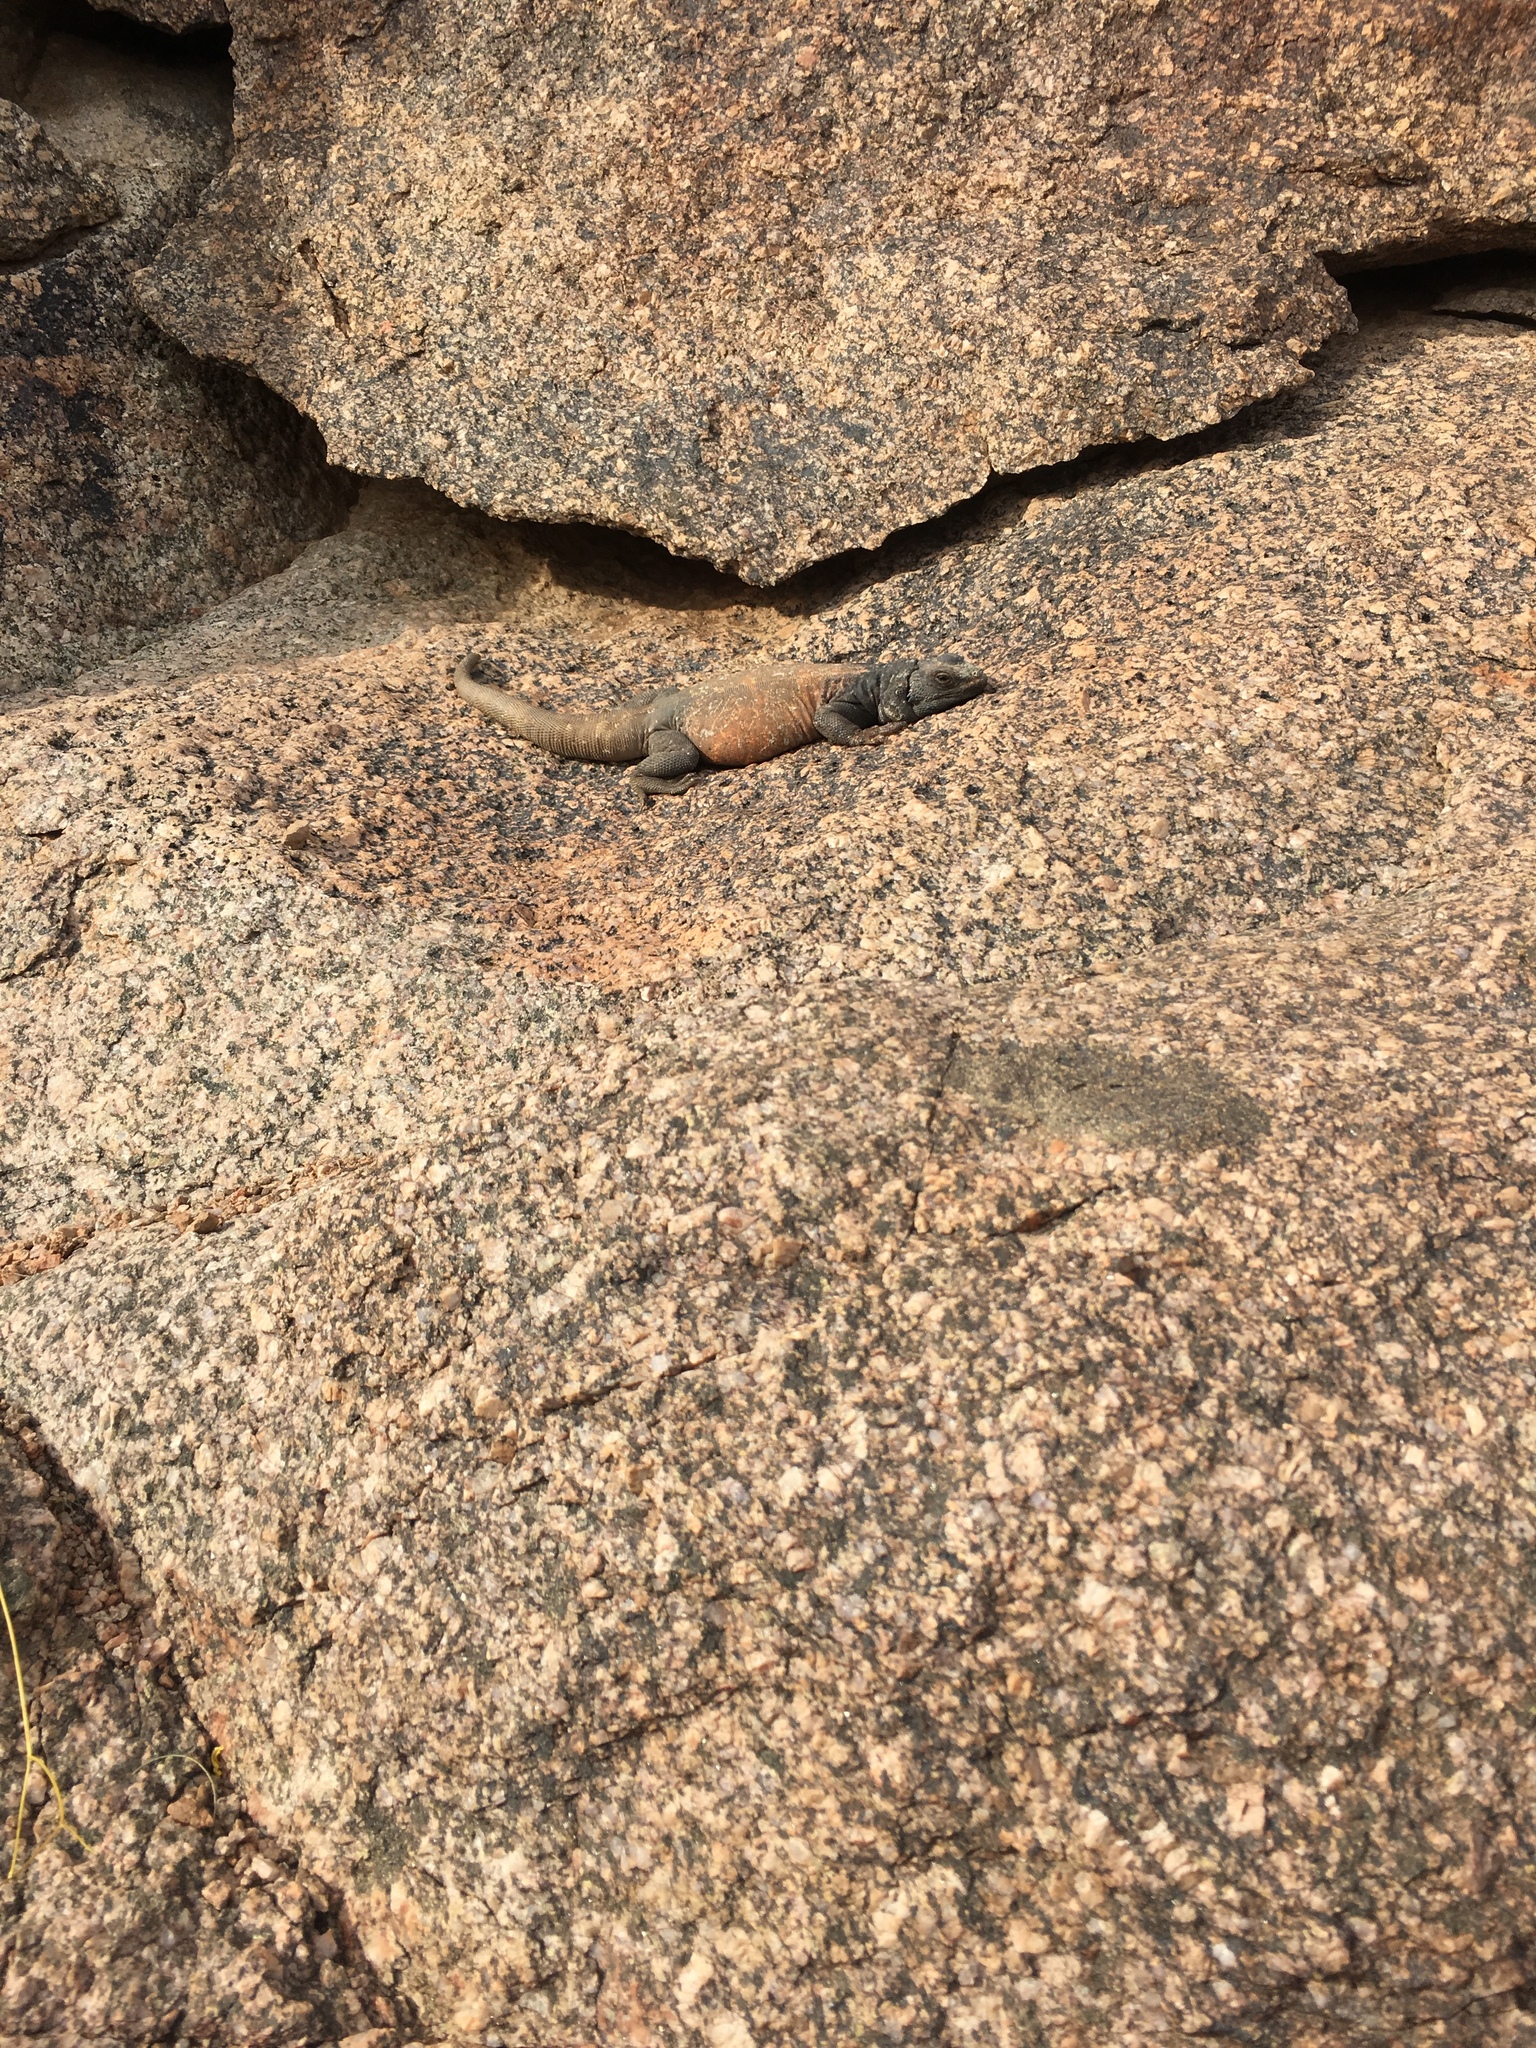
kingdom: Animalia
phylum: Chordata
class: Squamata
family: Iguanidae
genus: Sauromalus
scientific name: Sauromalus ater
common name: Northern chuckwalla
